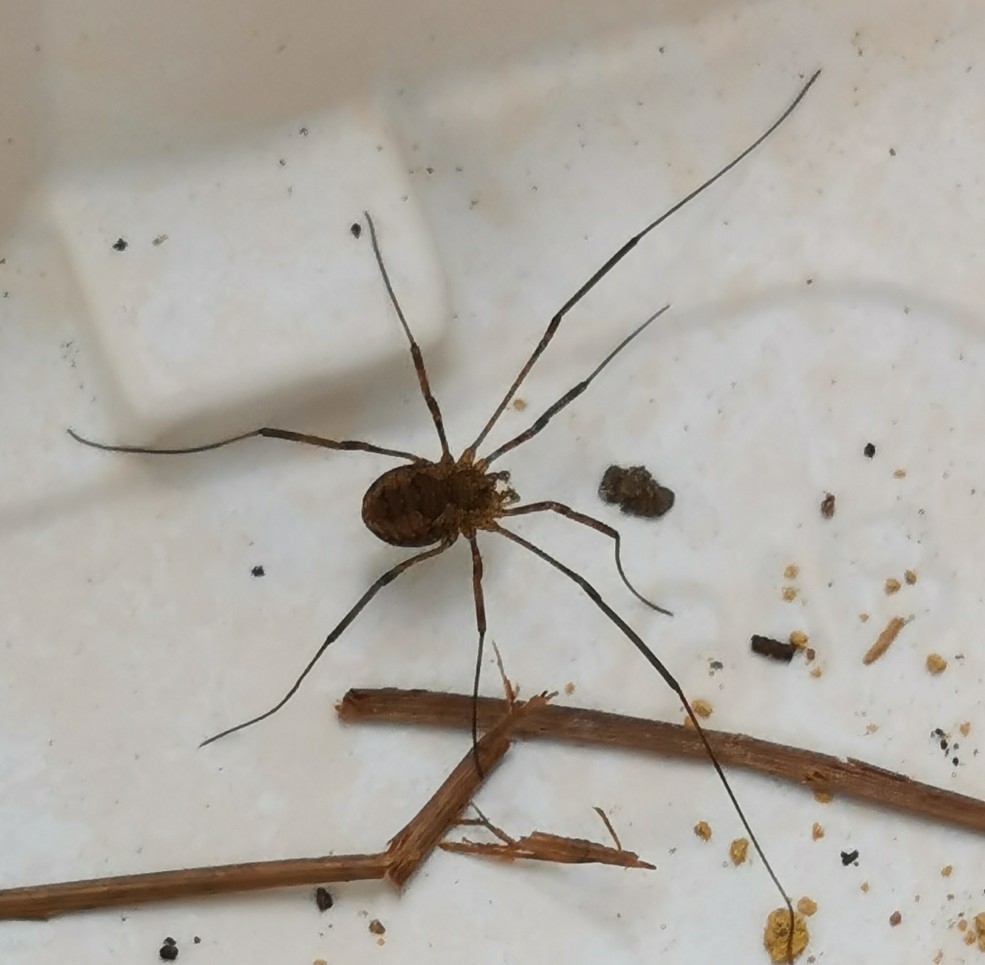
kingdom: Animalia
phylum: Arthropoda
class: Arachnida
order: Opiliones
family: Phalangiidae
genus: Phalangium
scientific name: Phalangium opilio
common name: Daddy longleg
